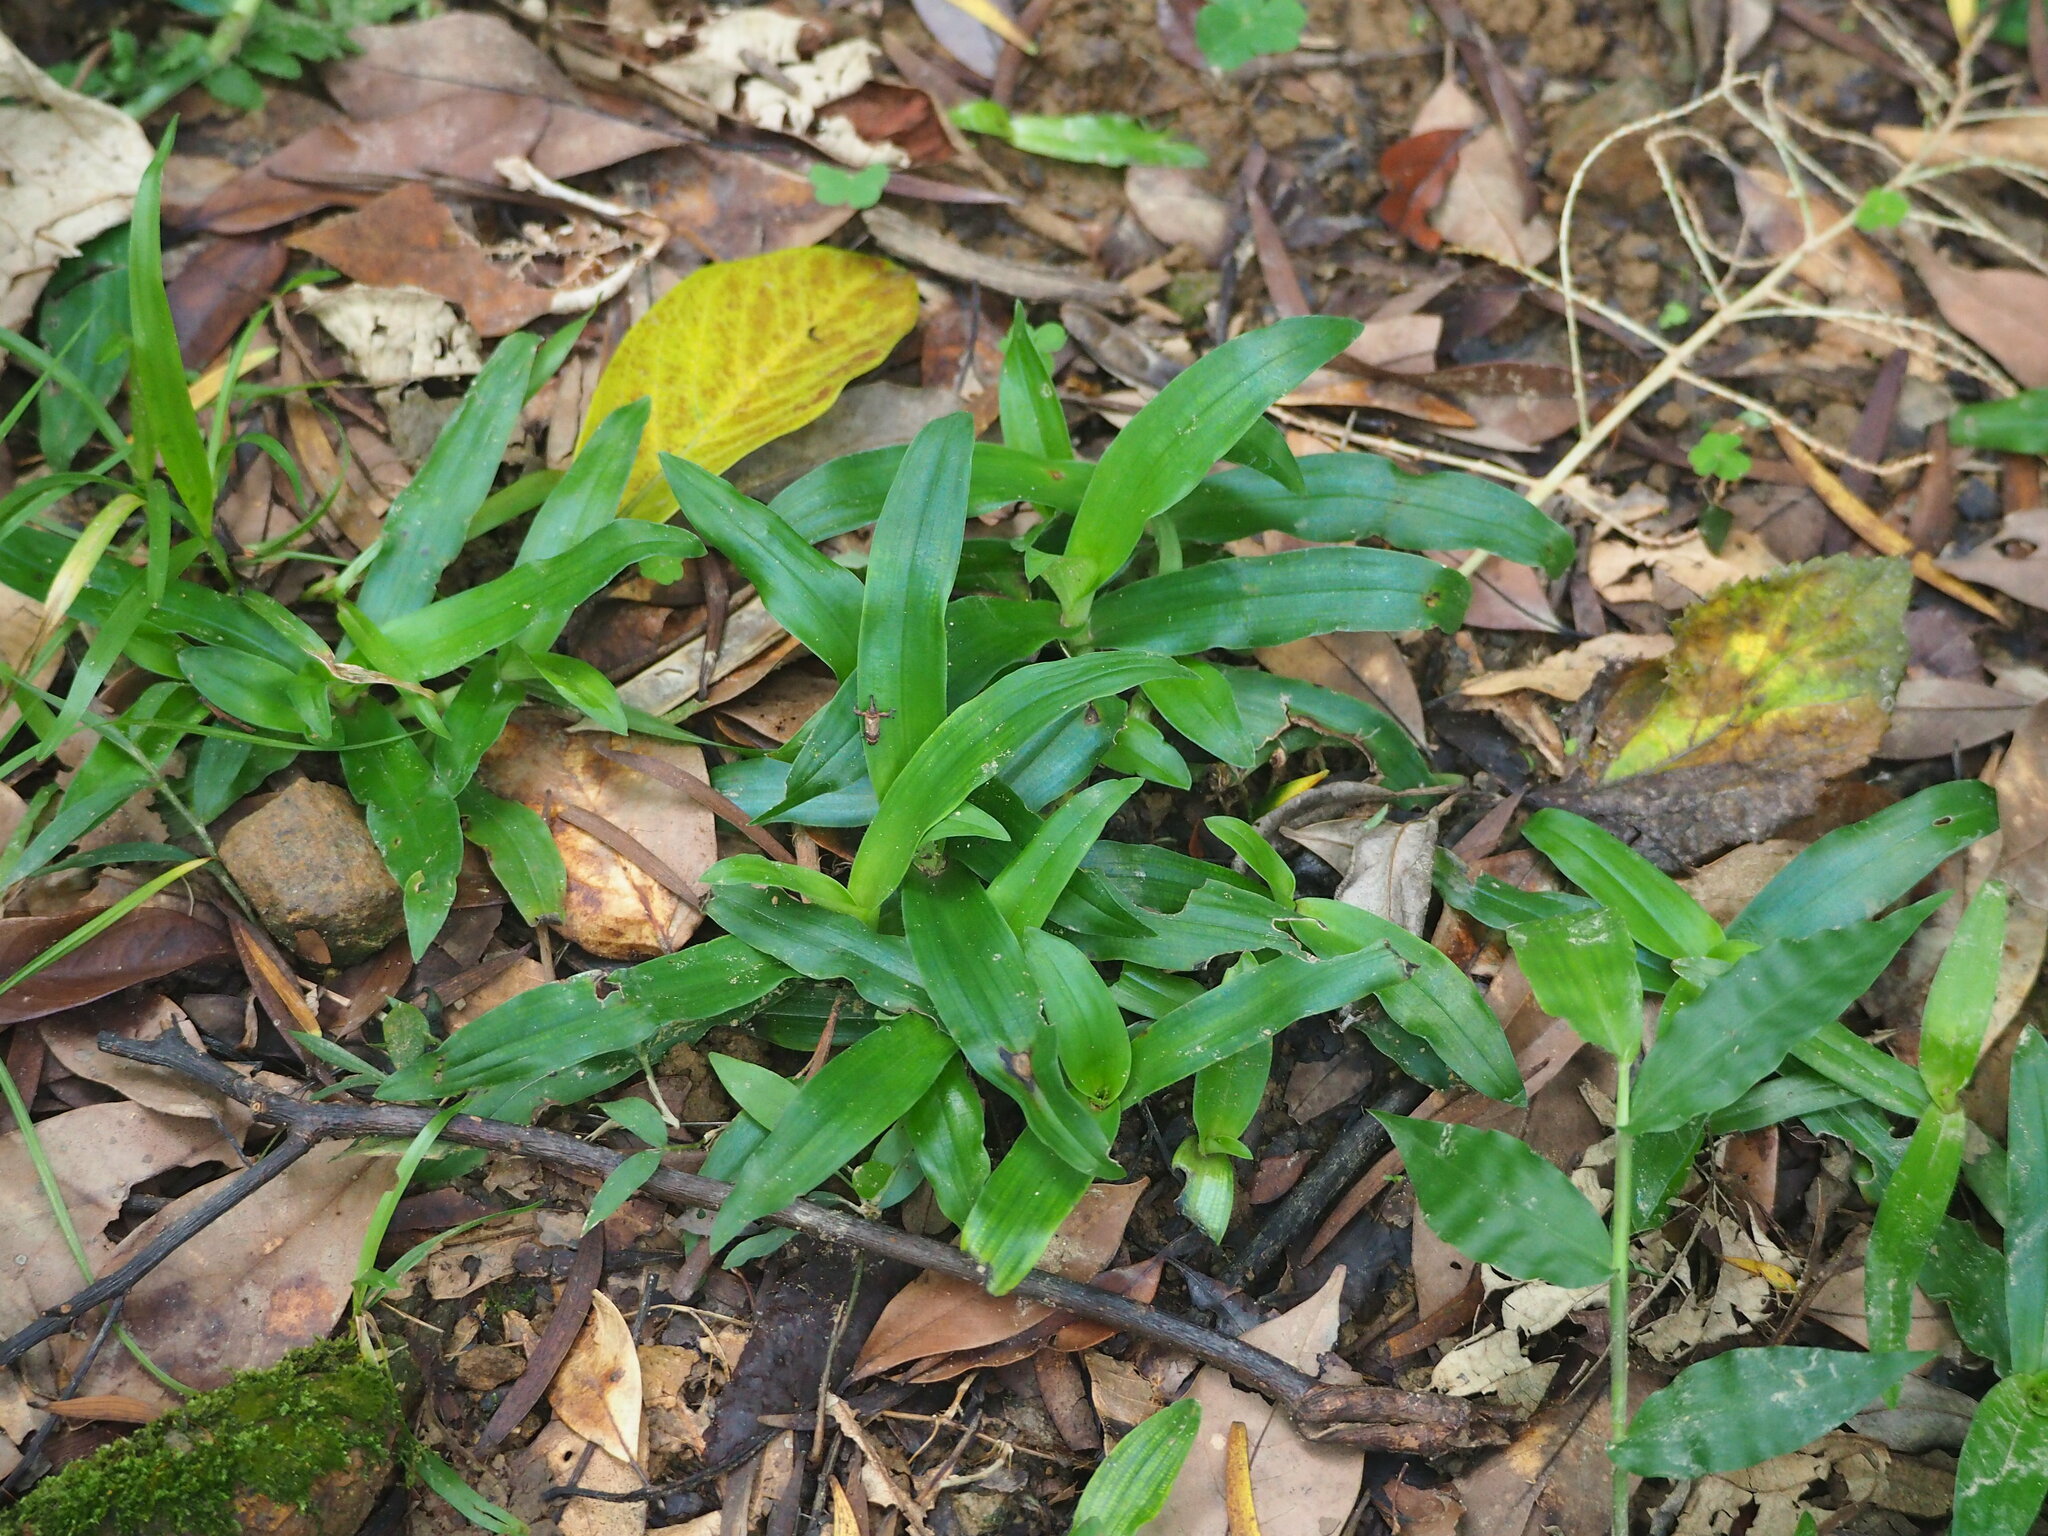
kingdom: Plantae
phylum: Tracheophyta
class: Liliopsida
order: Poales
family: Poaceae
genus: Axonopus
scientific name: Axonopus compressus
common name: American carpet grass
